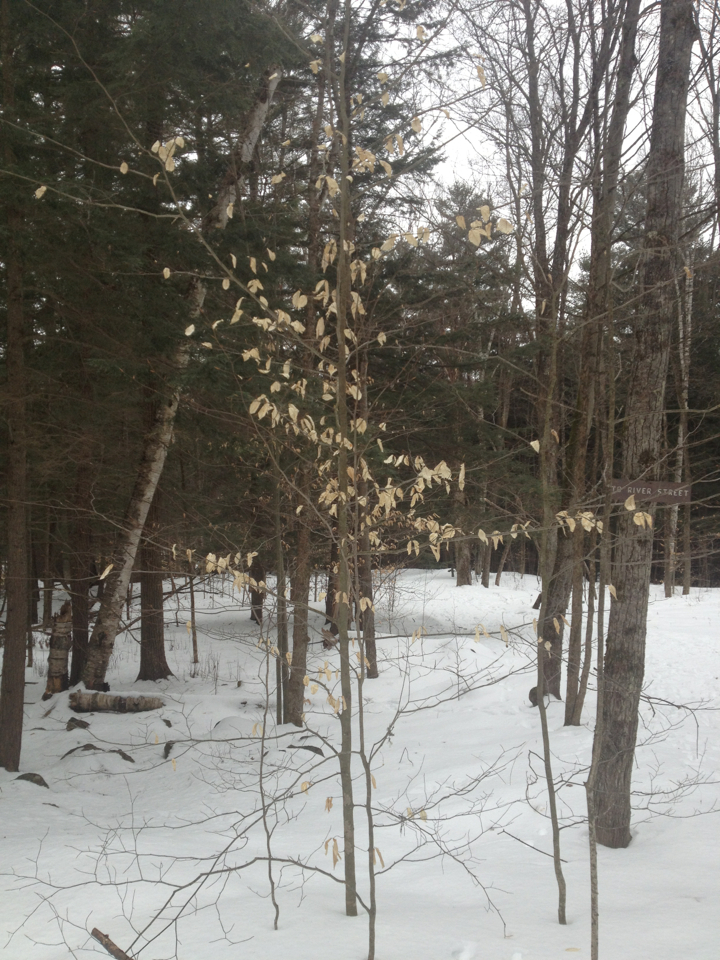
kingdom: Plantae
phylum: Tracheophyta
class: Magnoliopsida
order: Fagales
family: Fagaceae
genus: Fagus
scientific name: Fagus grandifolia
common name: American beech
